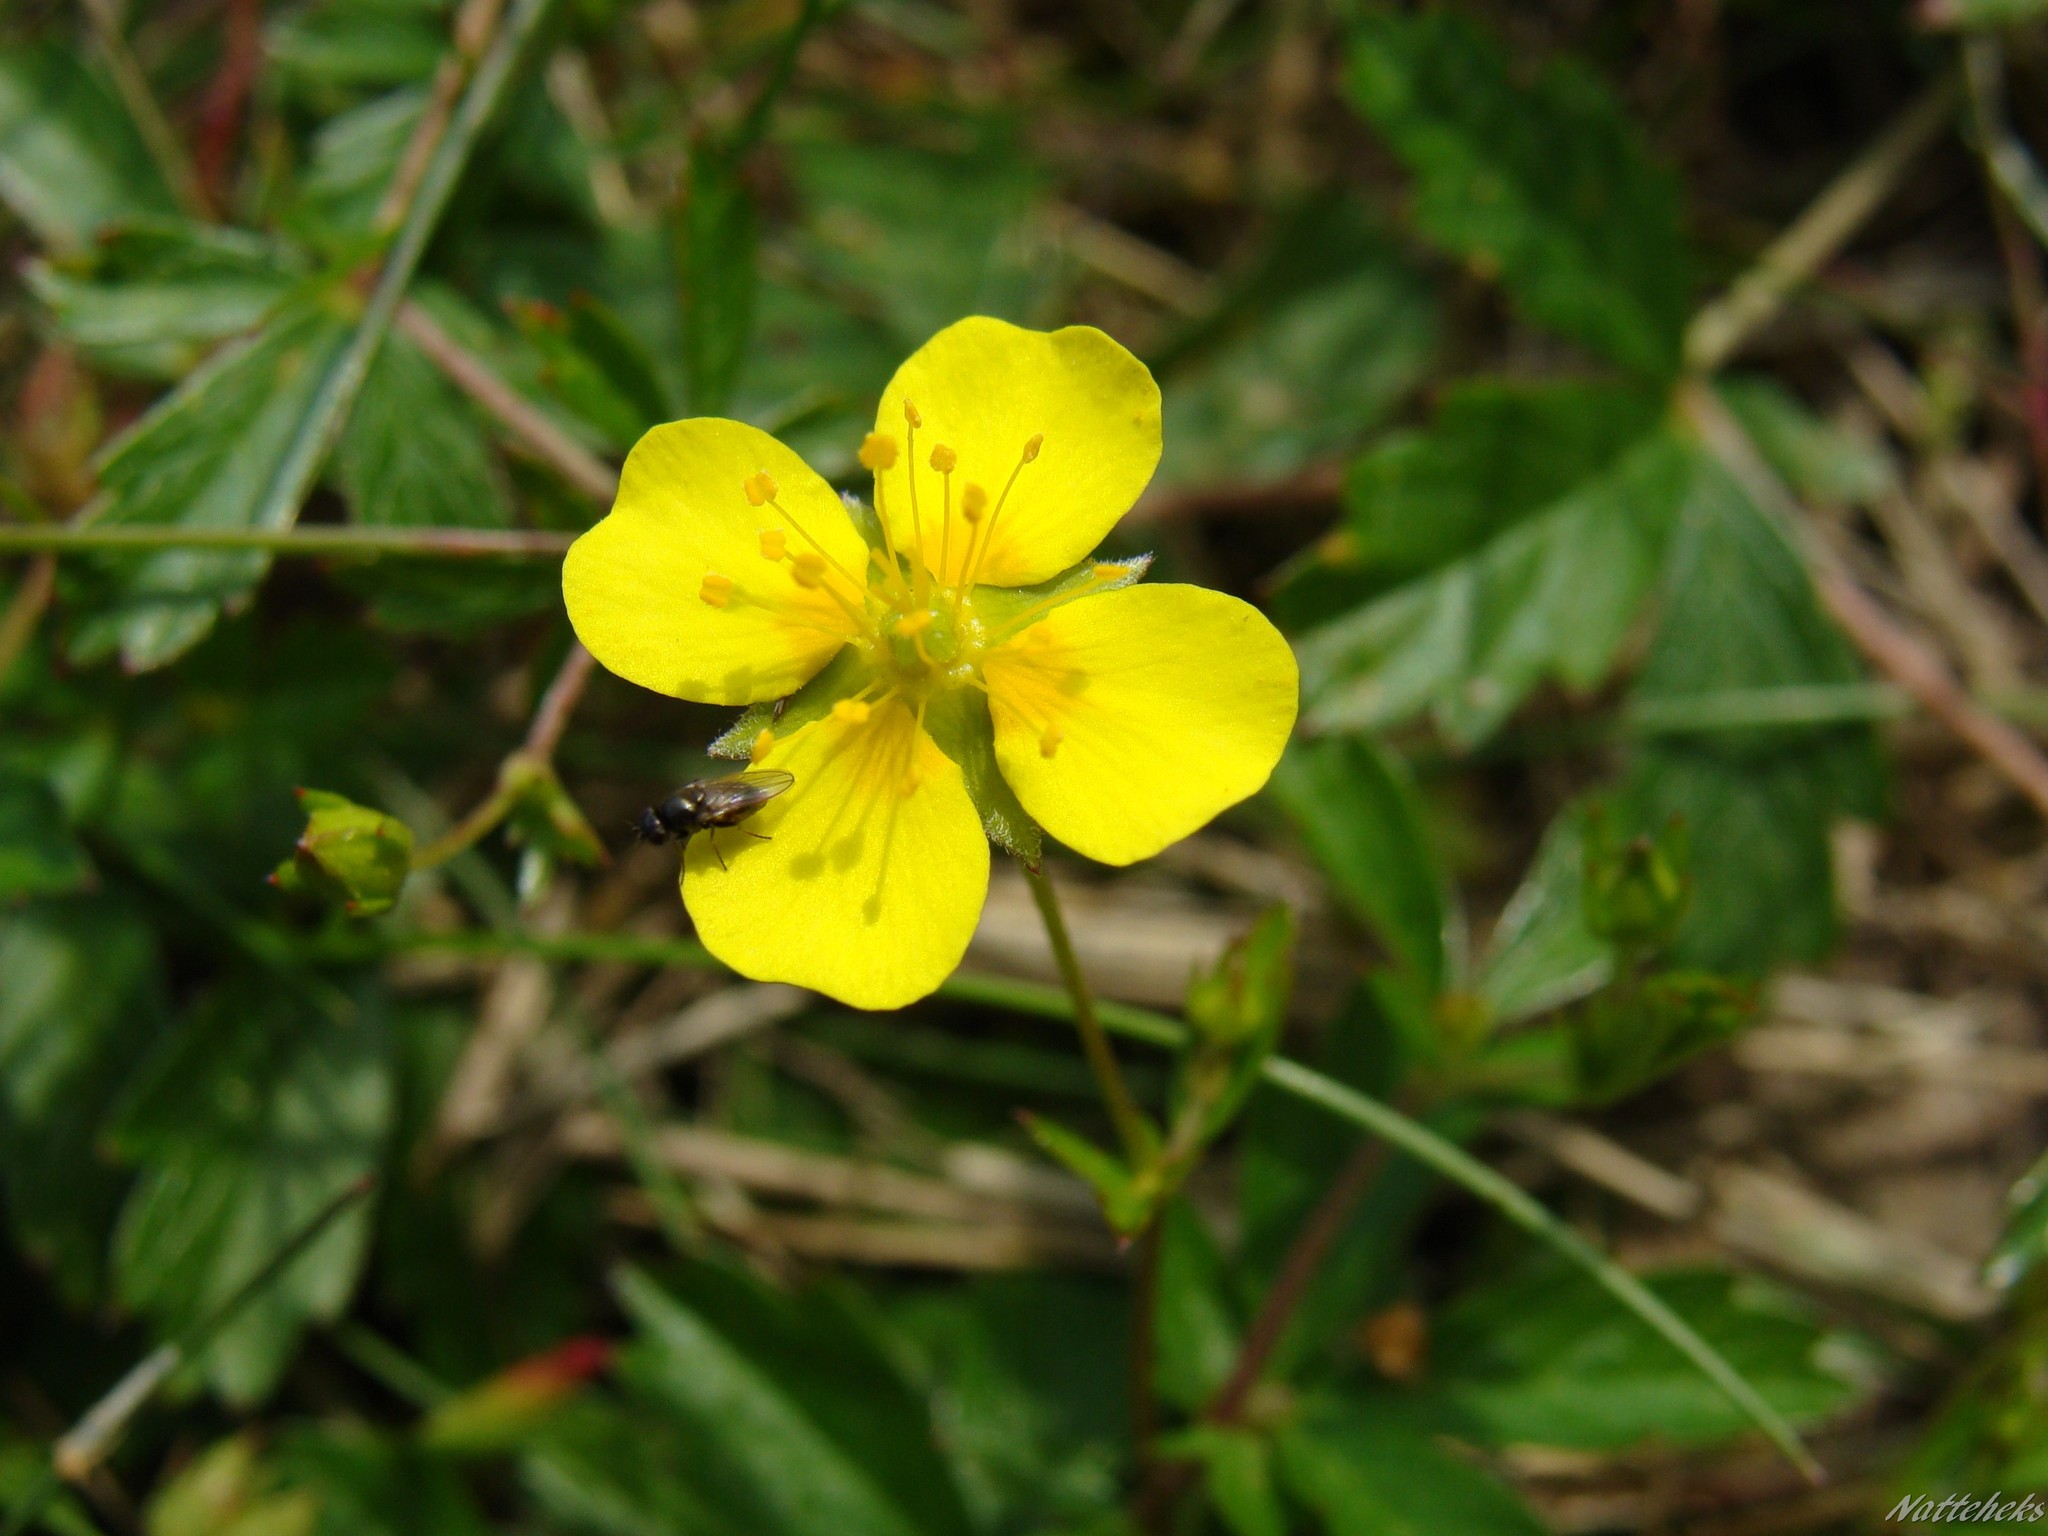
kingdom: Plantae
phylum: Tracheophyta
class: Magnoliopsida
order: Rosales
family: Rosaceae
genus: Potentilla
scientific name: Potentilla erecta
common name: Tormentil
